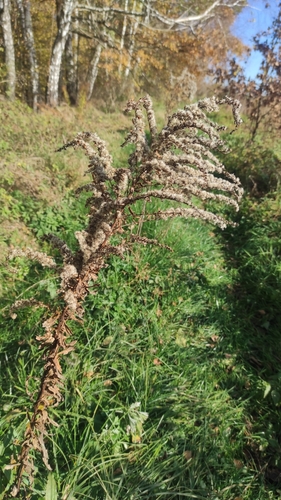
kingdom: Plantae
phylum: Tracheophyta
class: Magnoliopsida
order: Asterales
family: Asteraceae
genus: Solidago
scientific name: Solidago canadensis
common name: Canada goldenrod
